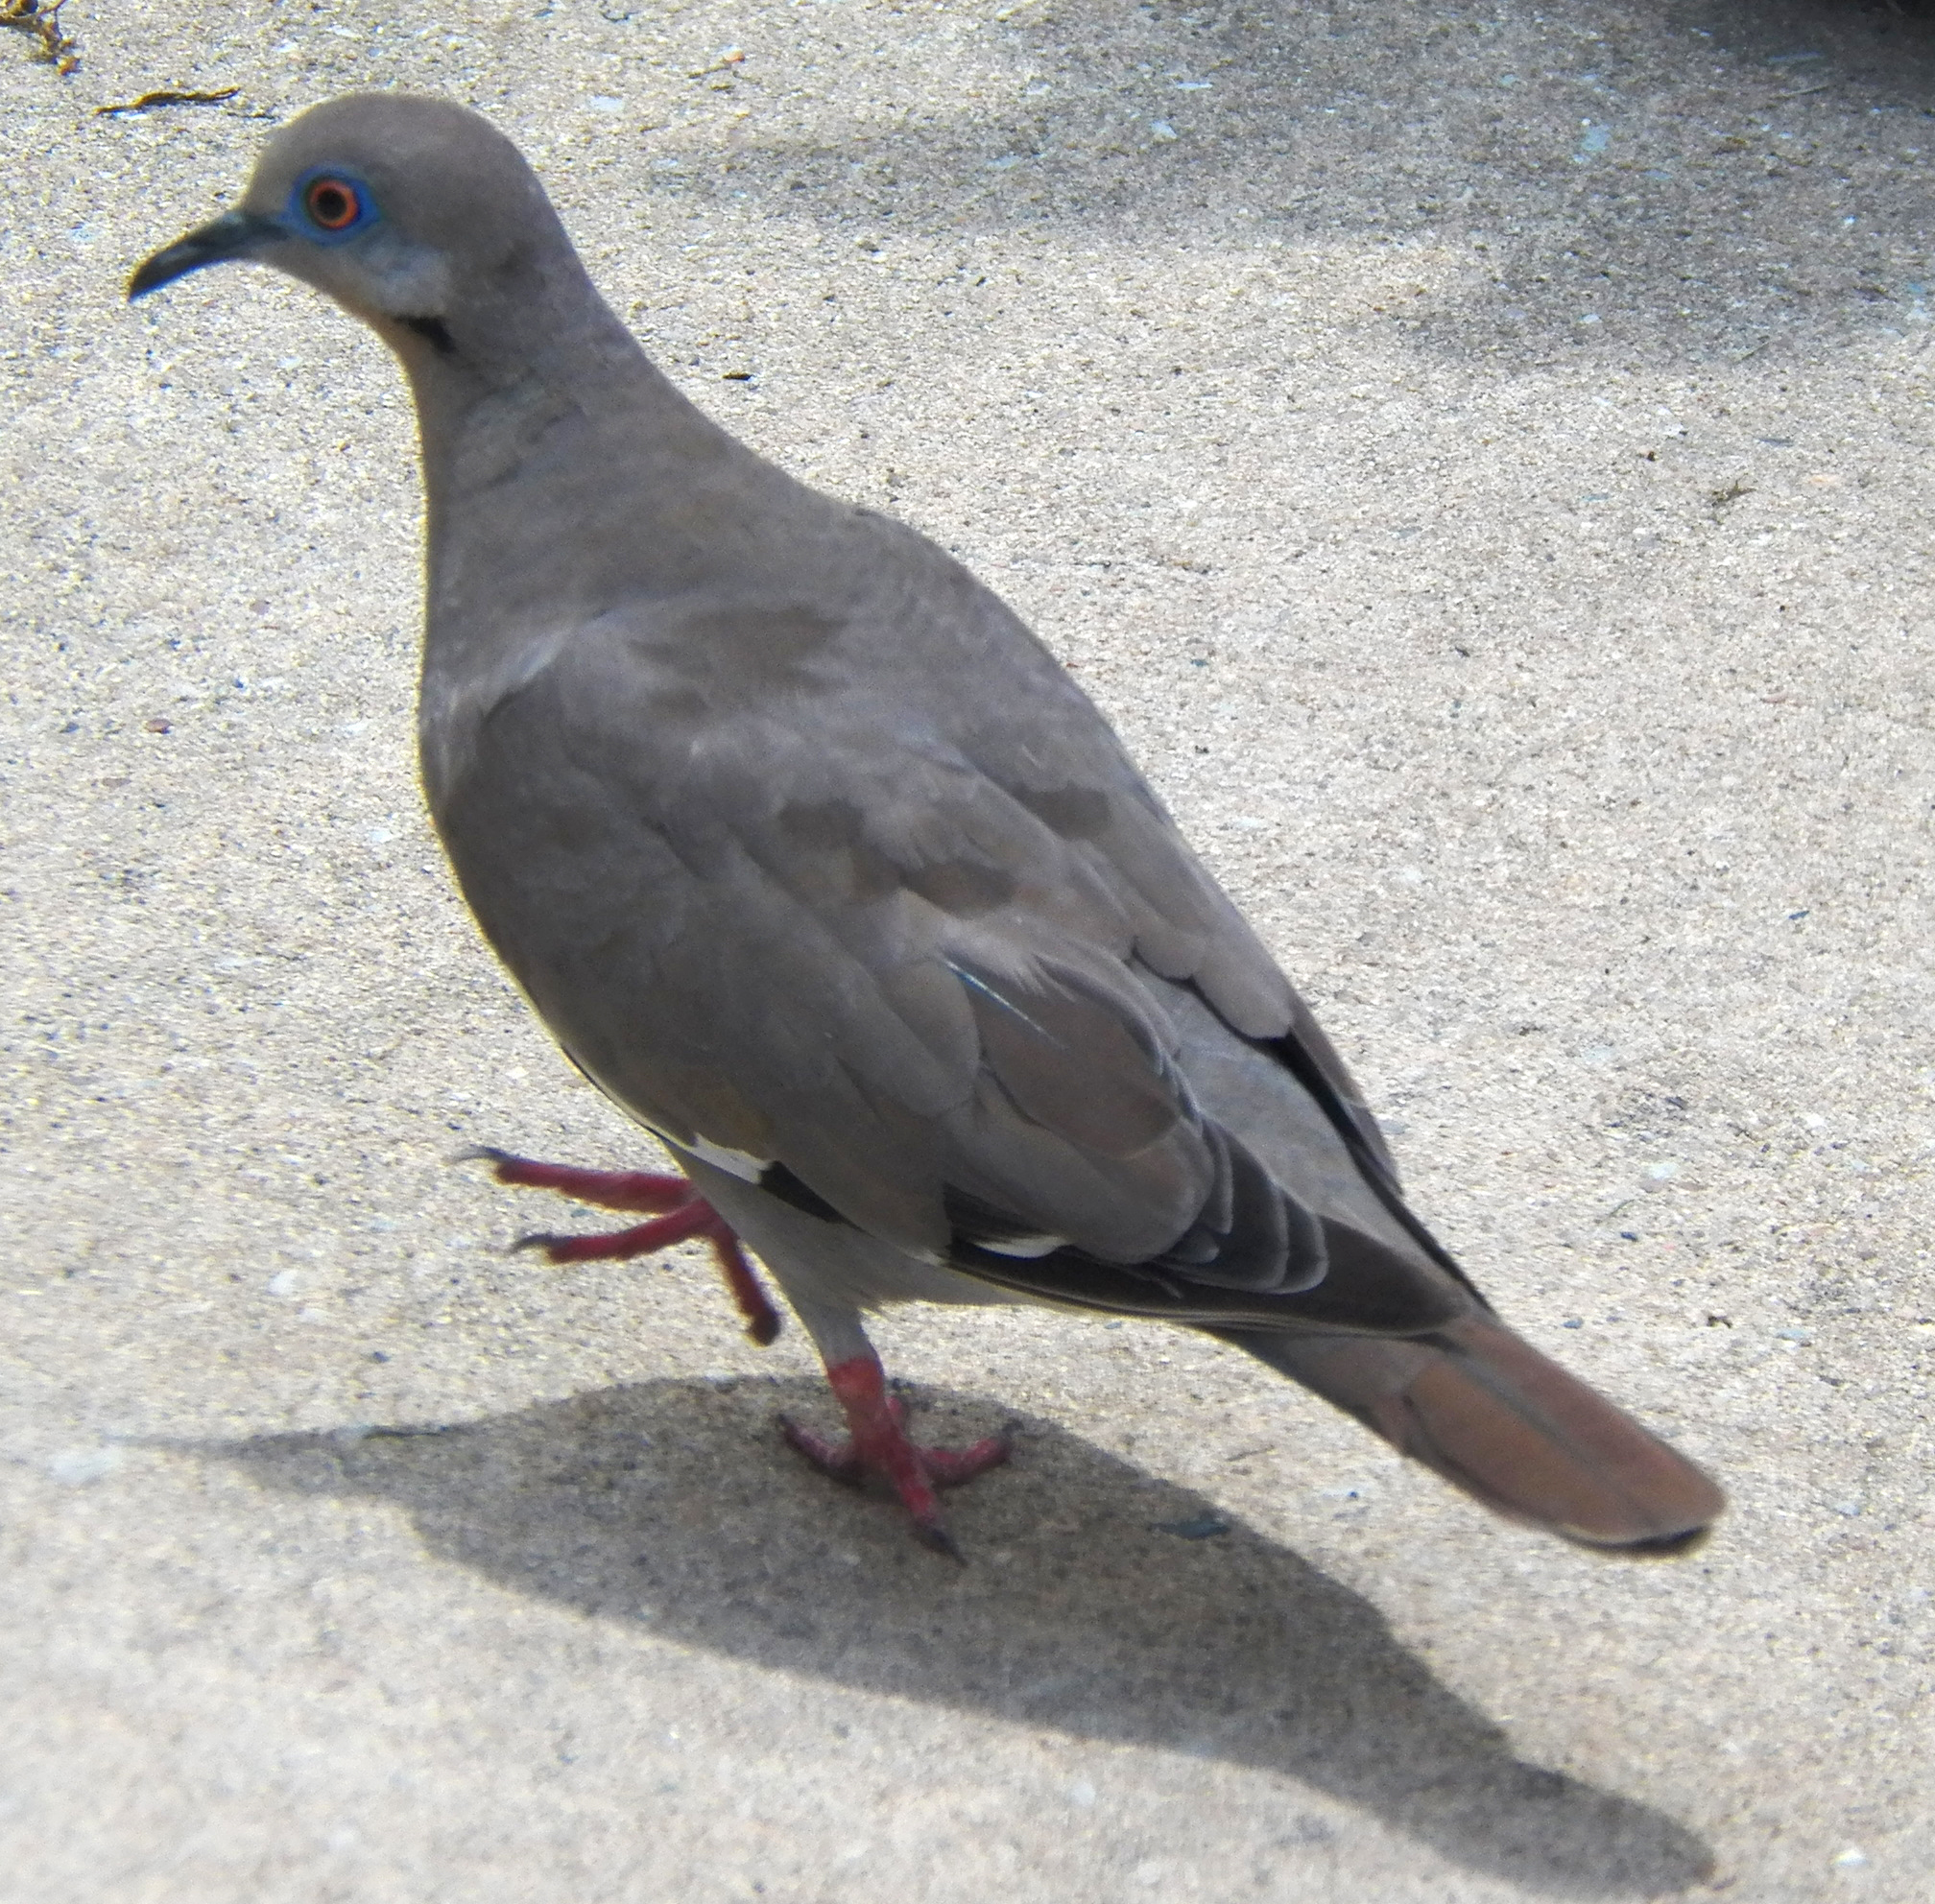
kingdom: Animalia
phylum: Chordata
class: Aves
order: Columbiformes
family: Columbidae
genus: Zenaida
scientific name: Zenaida asiatica
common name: White-winged dove
